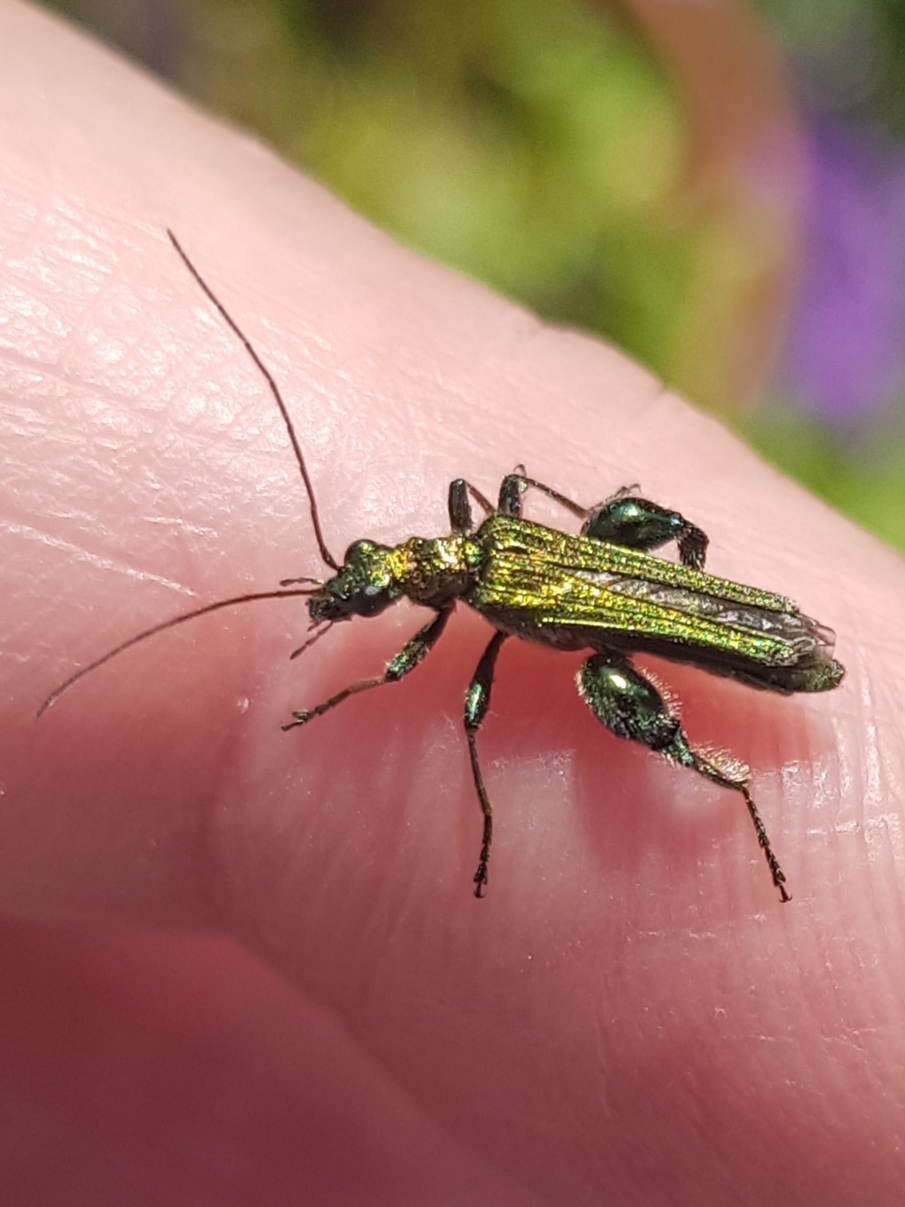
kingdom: Animalia
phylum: Arthropoda
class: Insecta
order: Coleoptera
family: Oedemeridae
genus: Oedemera
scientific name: Oedemera nobilis
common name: Swollen-thighed beetle
